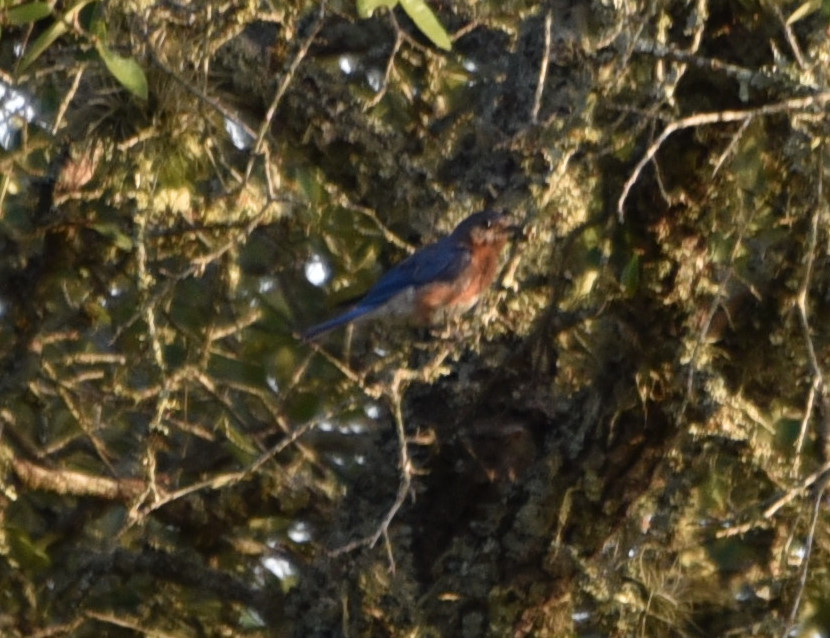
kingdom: Animalia
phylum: Chordata
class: Aves
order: Passeriformes
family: Turdidae
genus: Sialia
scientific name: Sialia sialis
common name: Eastern bluebird
